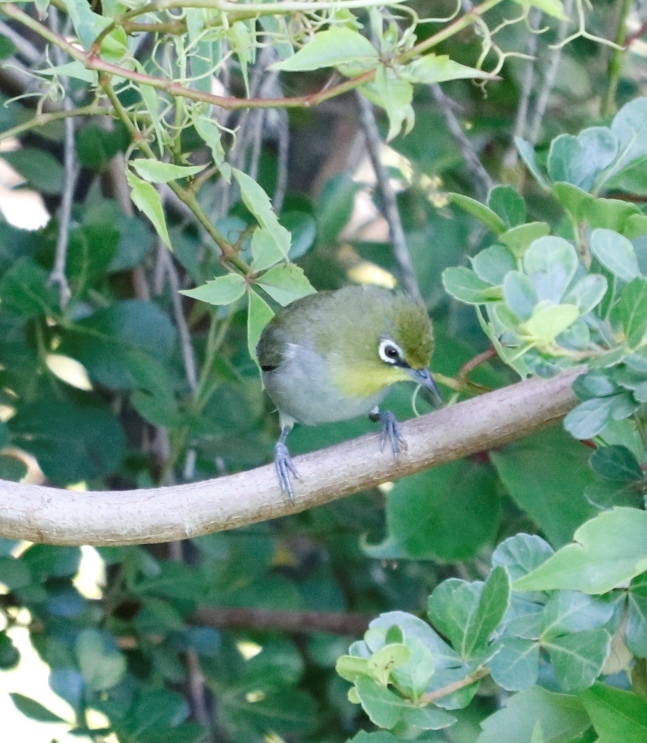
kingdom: Animalia
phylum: Chordata
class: Aves
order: Passeriformes
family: Zosteropidae
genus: Zosterops
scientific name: Zosterops virens
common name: Cape white-eye
